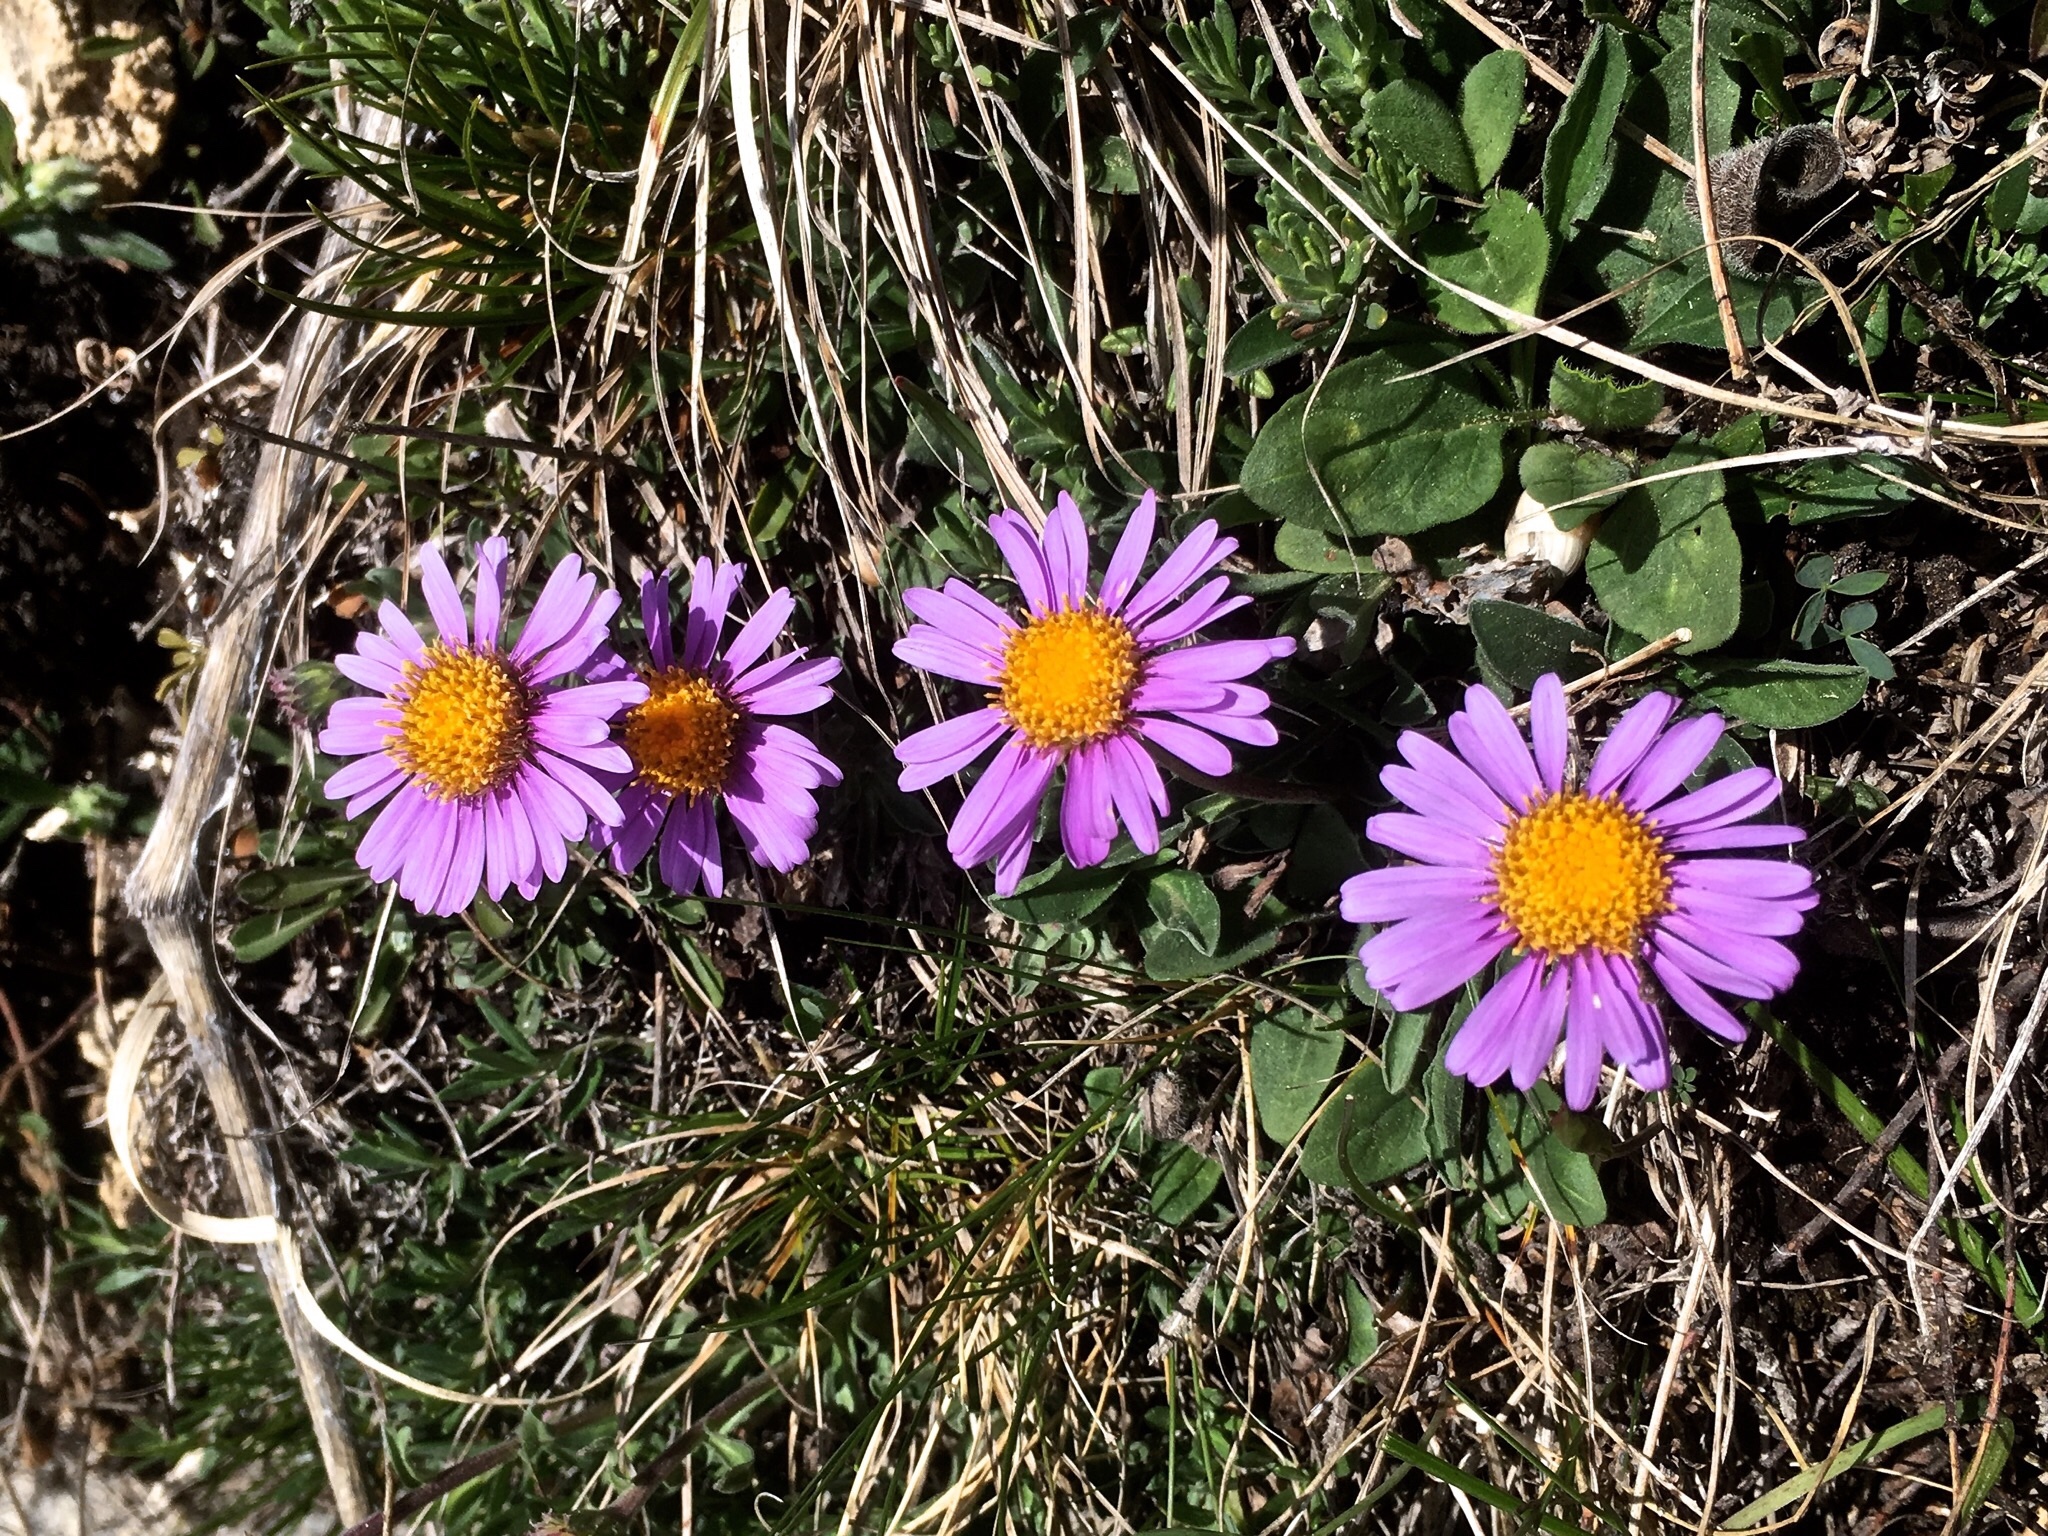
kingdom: Plantae
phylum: Tracheophyta
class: Magnoliopsida
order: Asterales
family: Asteraceae
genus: Aster
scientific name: Aster alpinus
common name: Alpine aster
